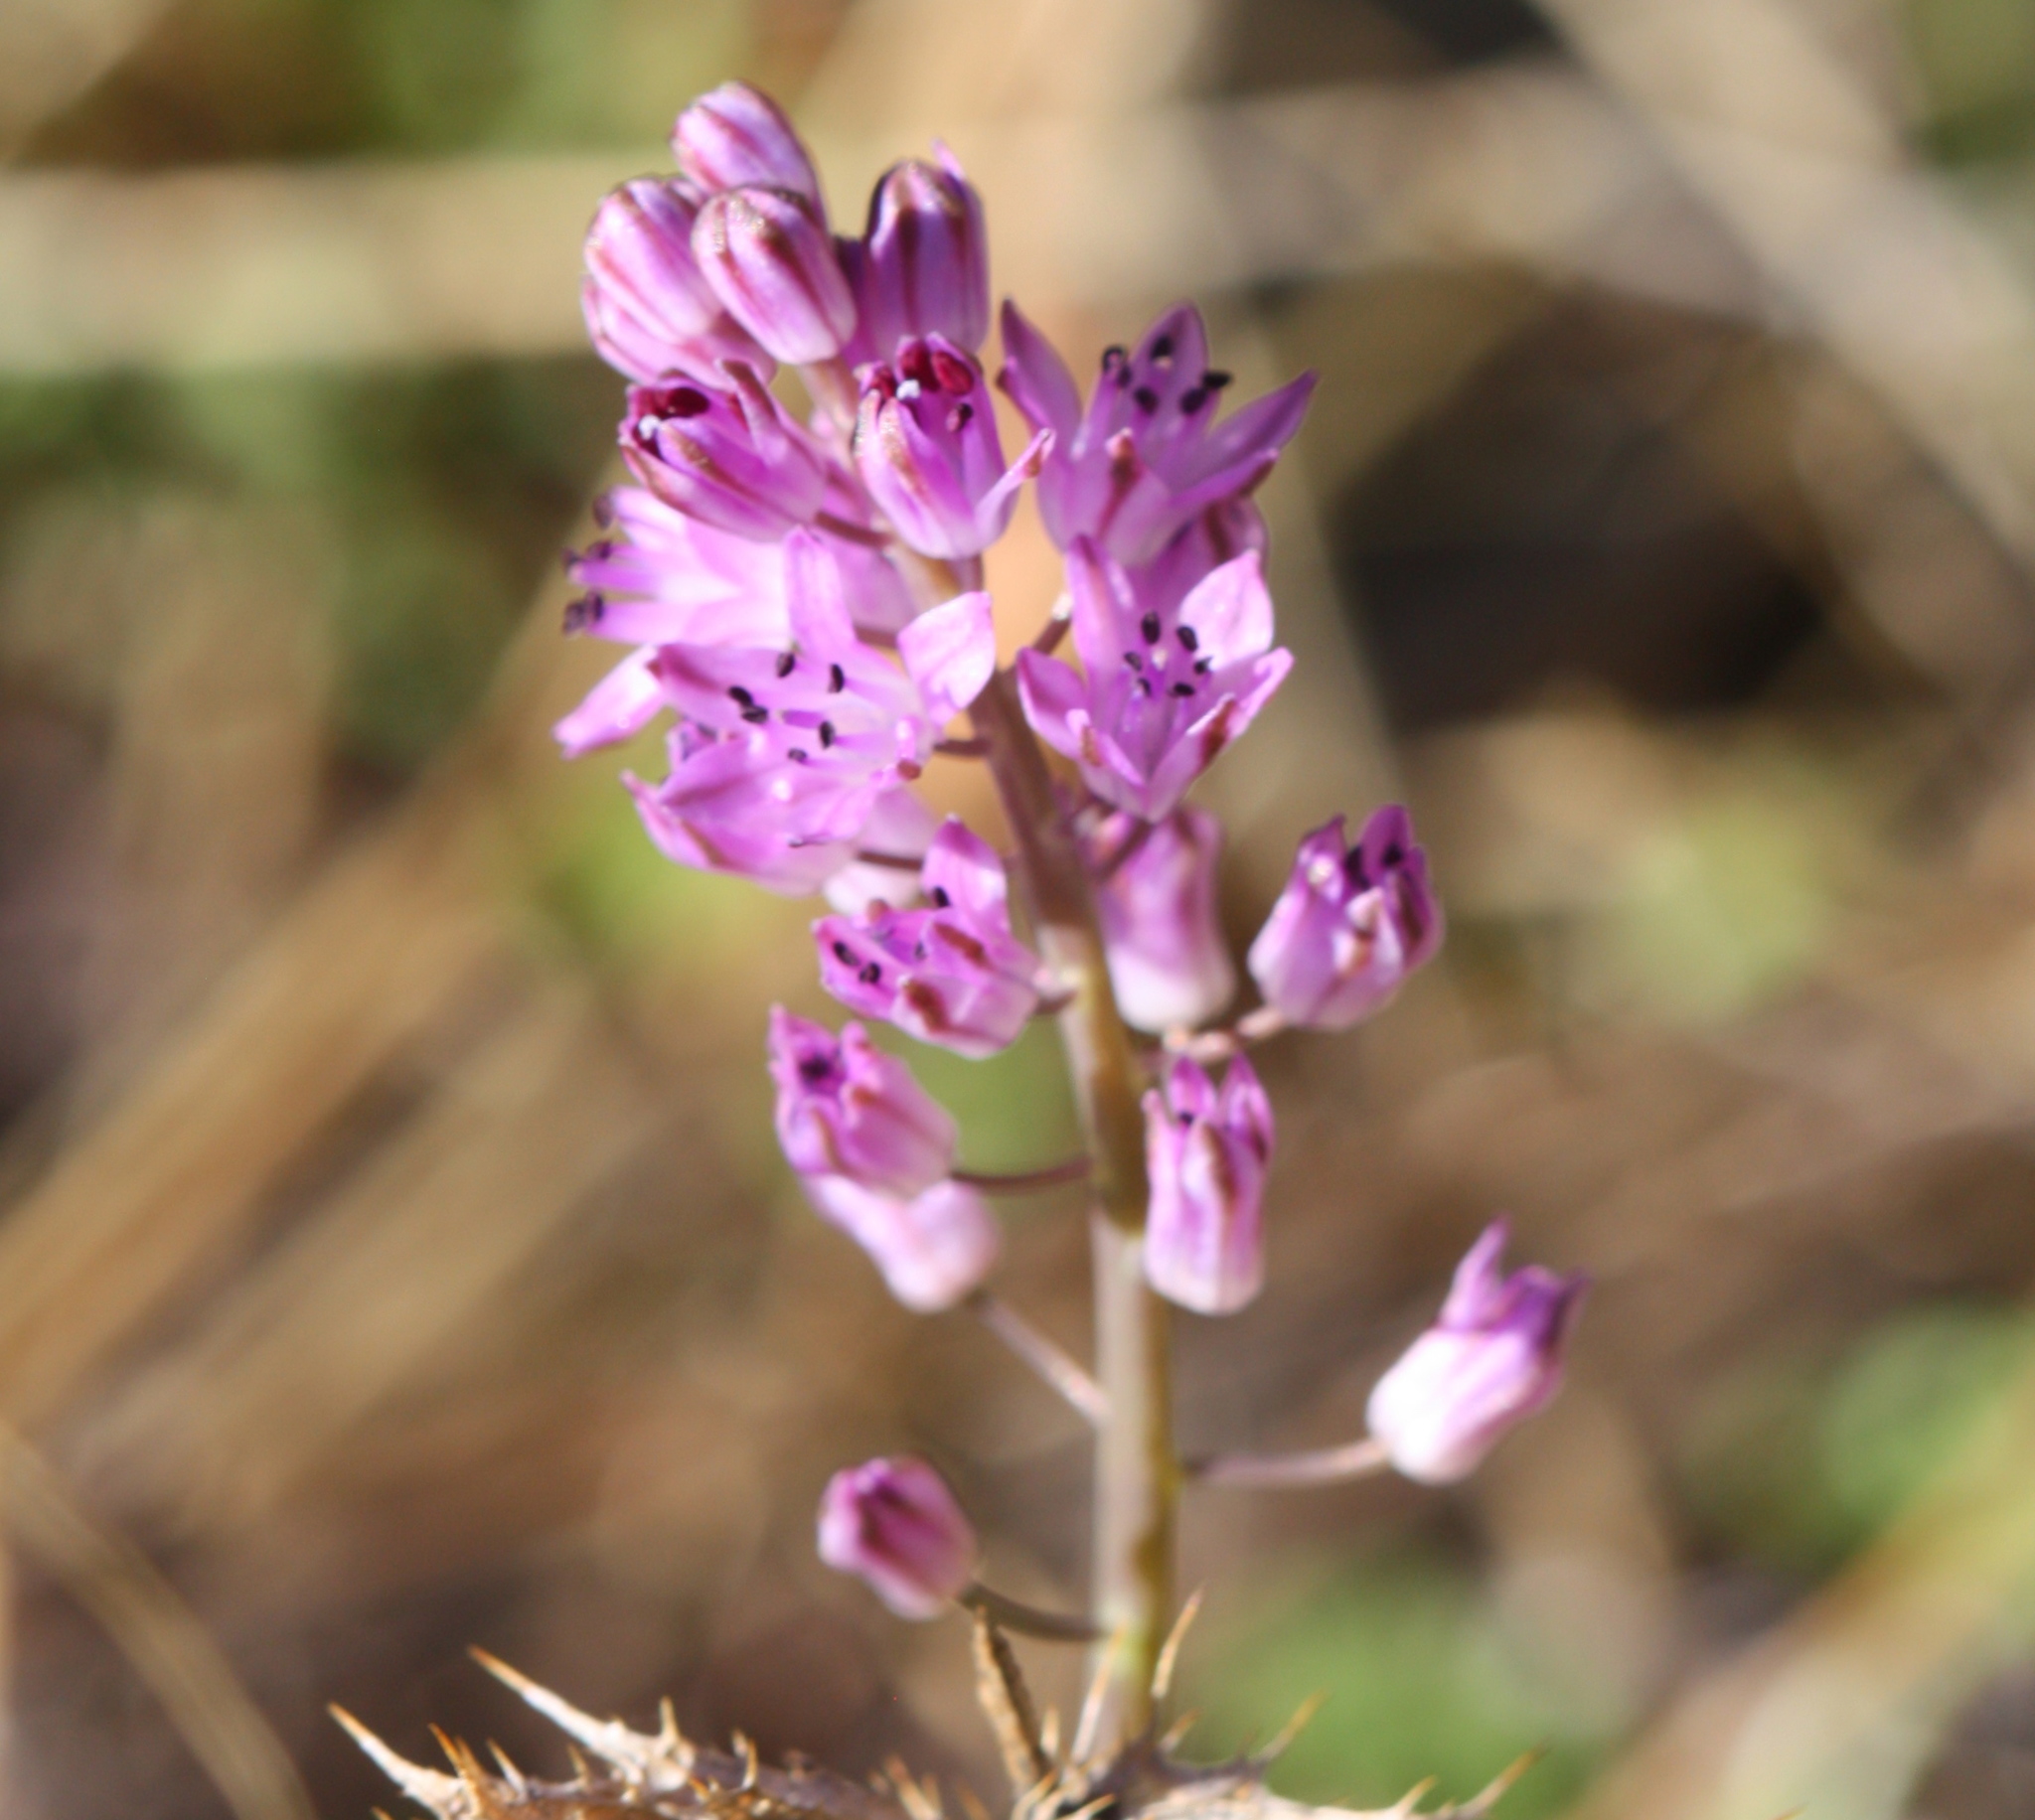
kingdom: Plantae
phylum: Tracheophyta
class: Liliopsida
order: Asparagales
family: Asparagaceae
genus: Prospero
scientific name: Prospero autumnale
